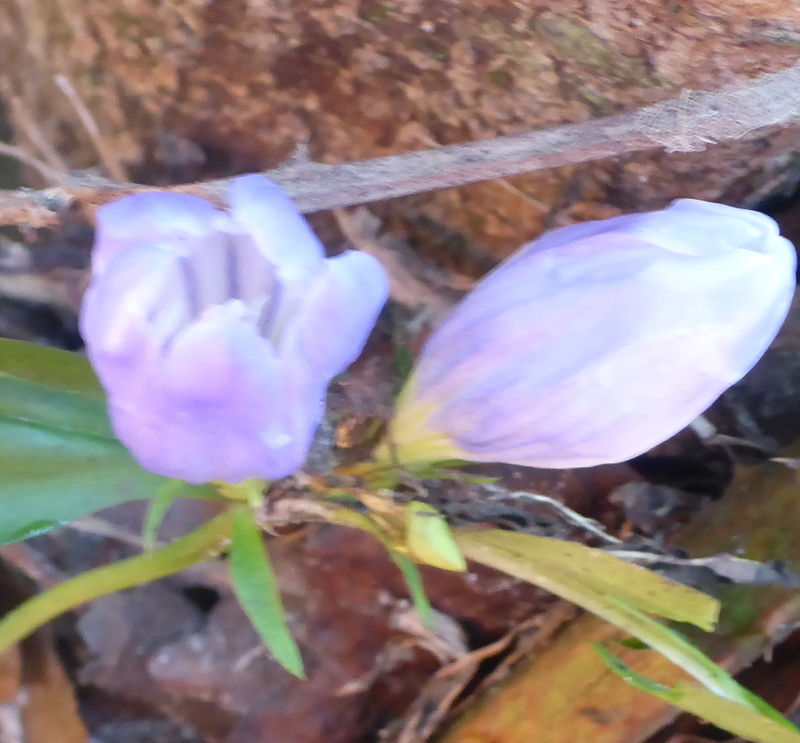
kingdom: Plantae
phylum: Tracheophyta
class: Magnoliopsida
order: Gentianales
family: Gentianaceae
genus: Gentiana
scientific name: Gentiana saponaria
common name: Soapwort gentian
